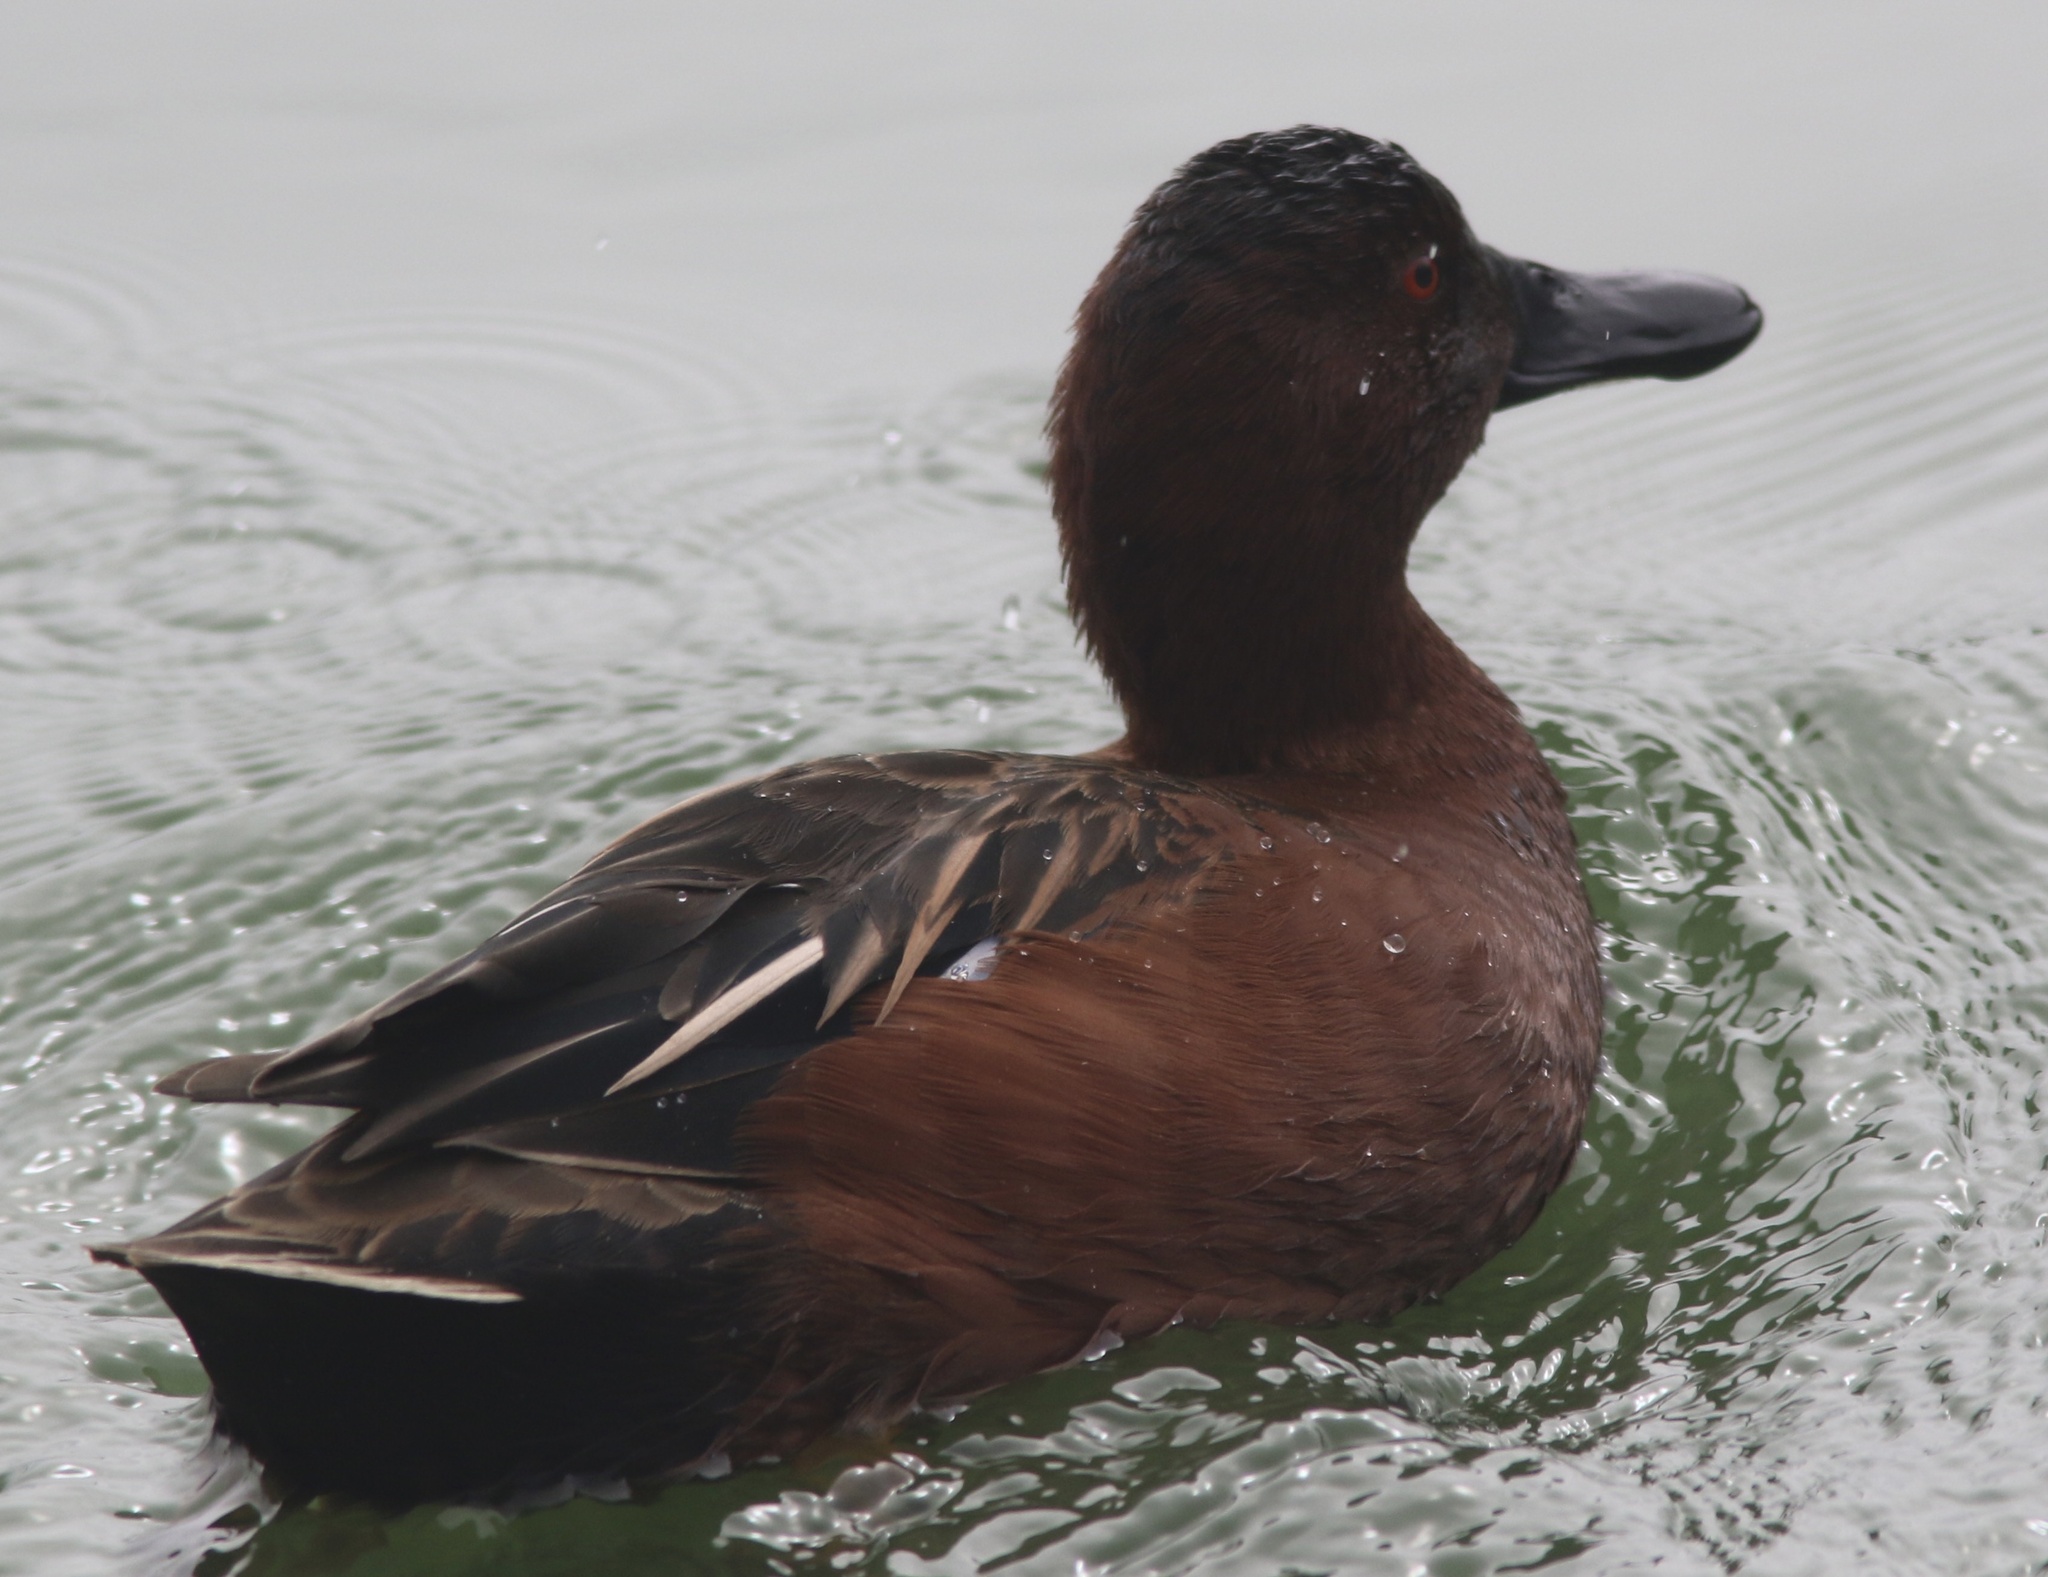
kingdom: Animalia
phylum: Chordata
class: Aves
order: Anseriformes
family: Anatidae
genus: Spatula
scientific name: Spatula cyanoptera
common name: Cinnamon teal
